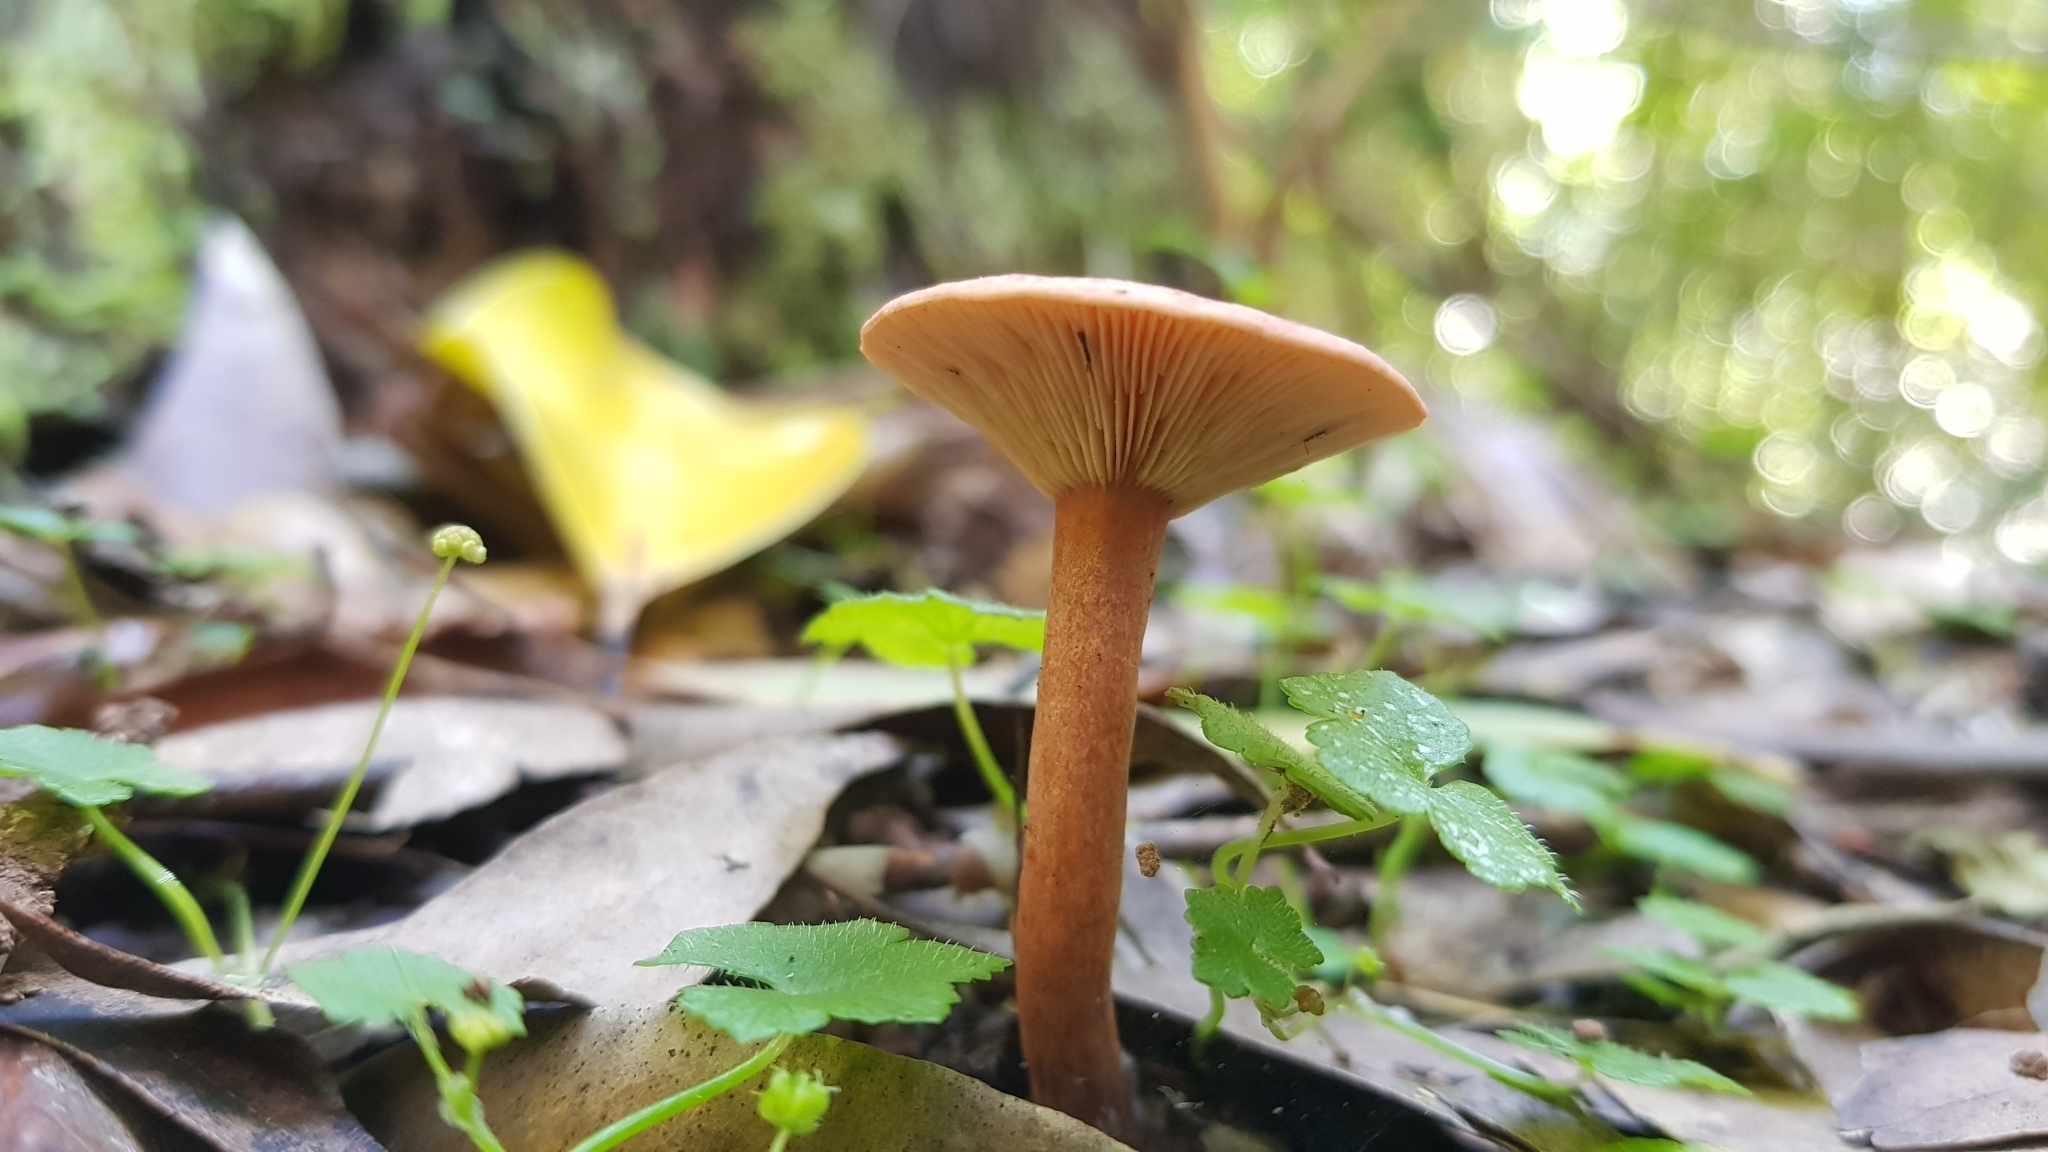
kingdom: Fungi
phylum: Basidiomycota
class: Agaricomycetes
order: Russulales
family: Russulaceae
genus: Lactarius
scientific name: Lactarius eucalypti
